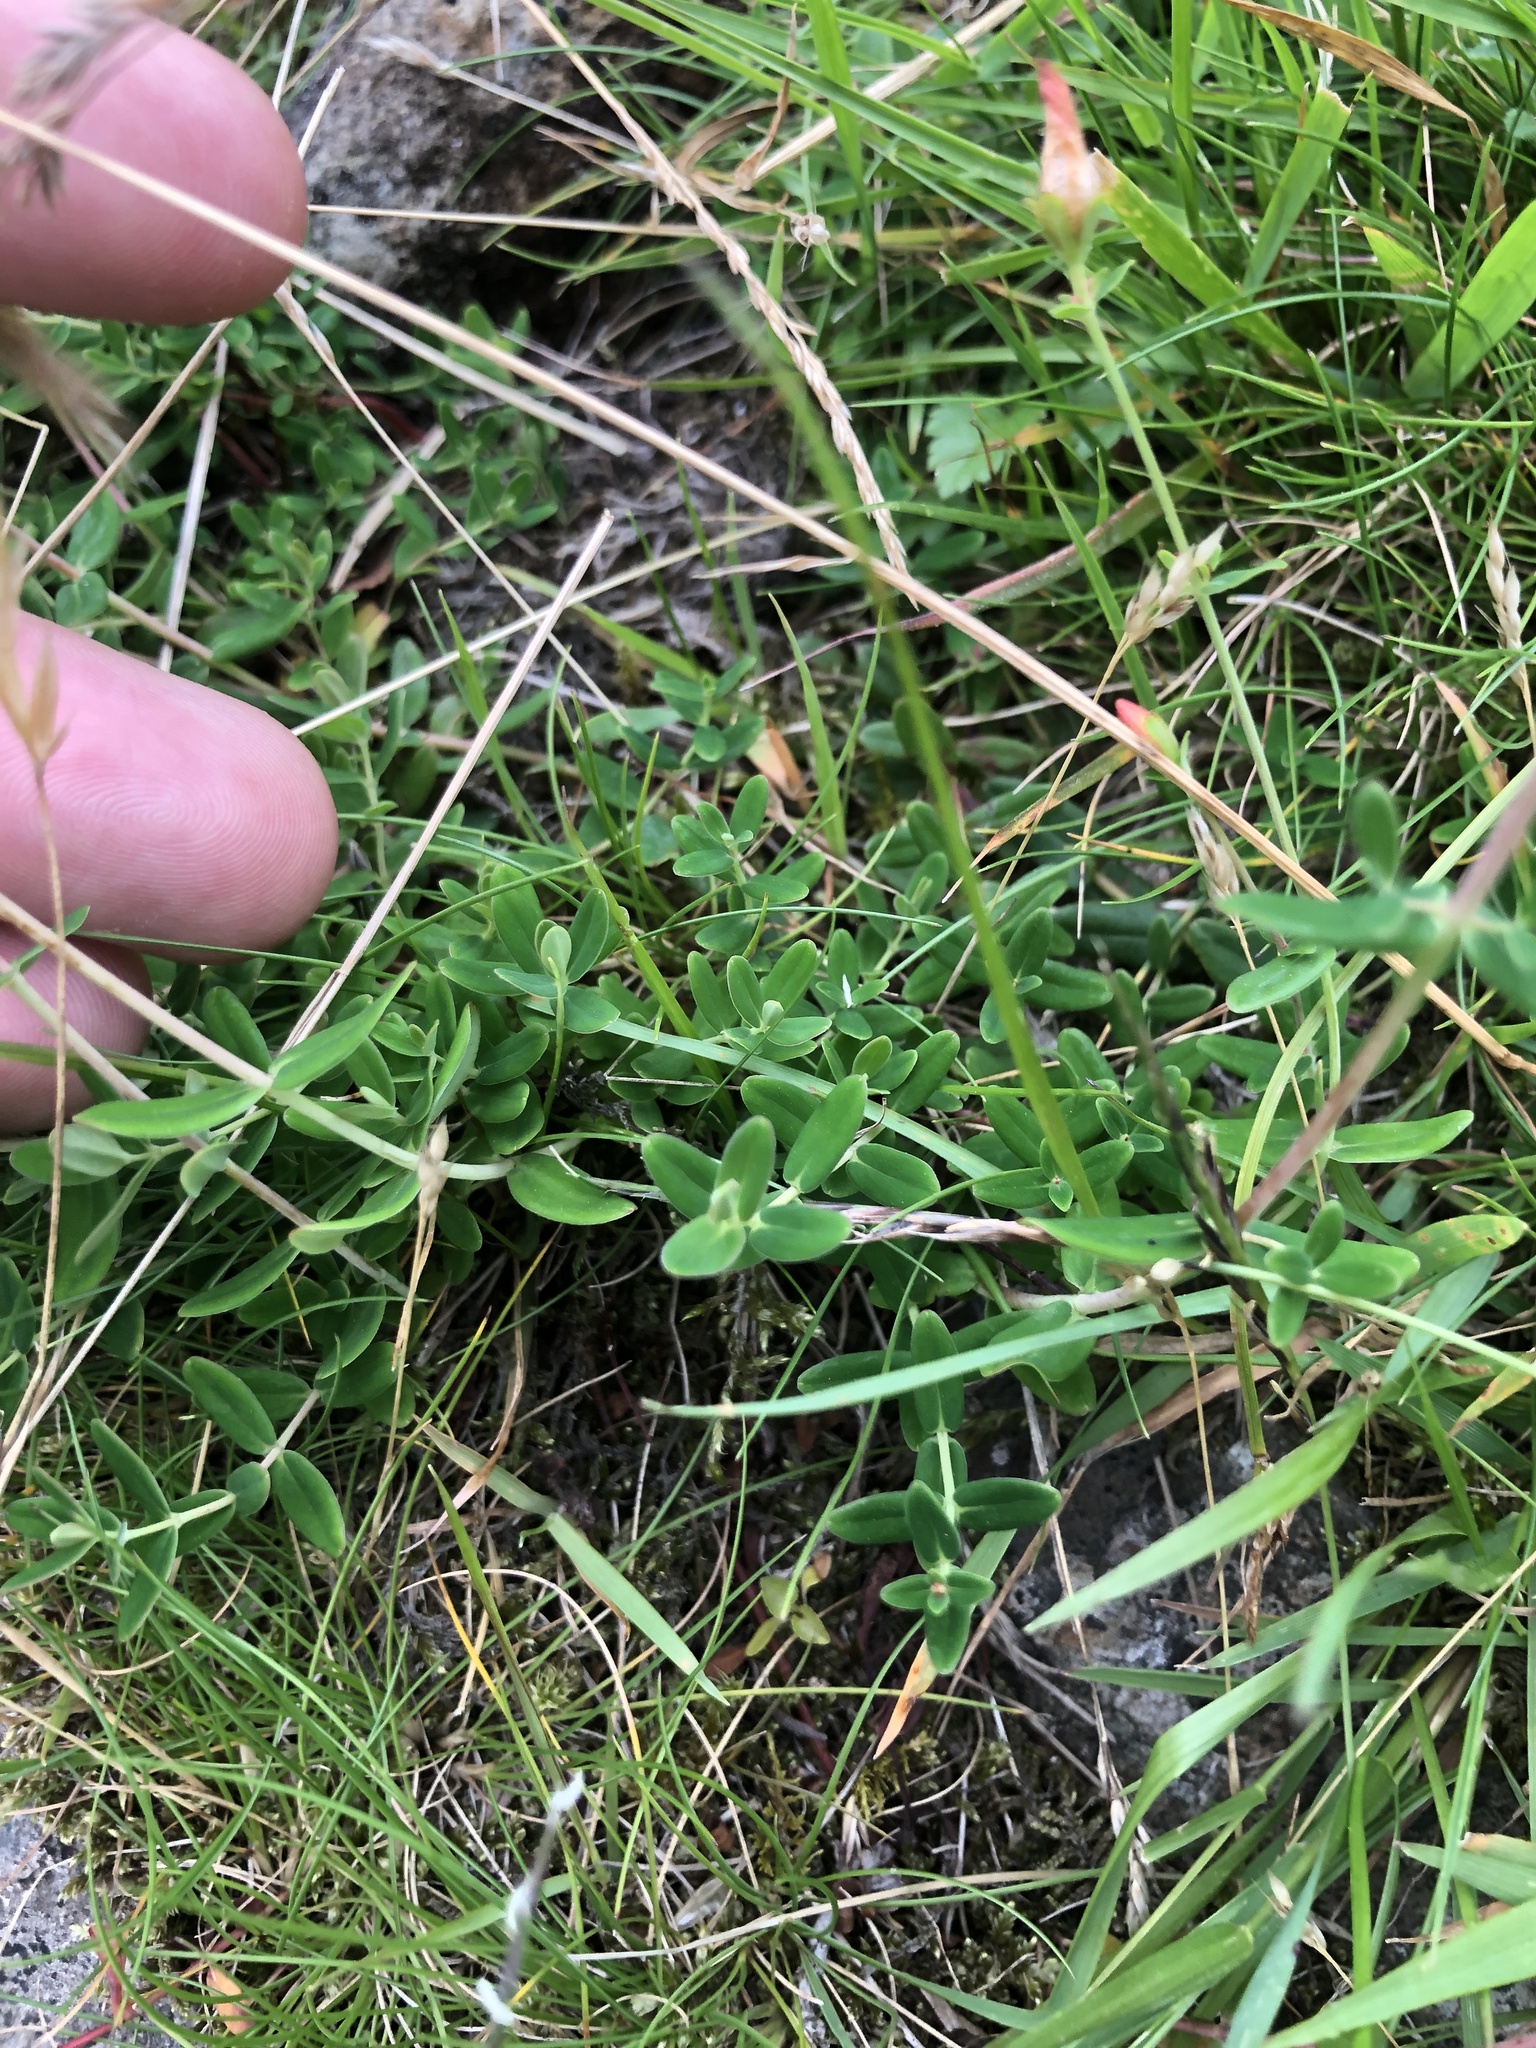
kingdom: Plantae
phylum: Tracheophyta
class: Magnoliopsida
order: Malpighiales
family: Hypericaceae
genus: Hypericum
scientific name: Hypericum pulchrum
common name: Slender st. john's-wort
